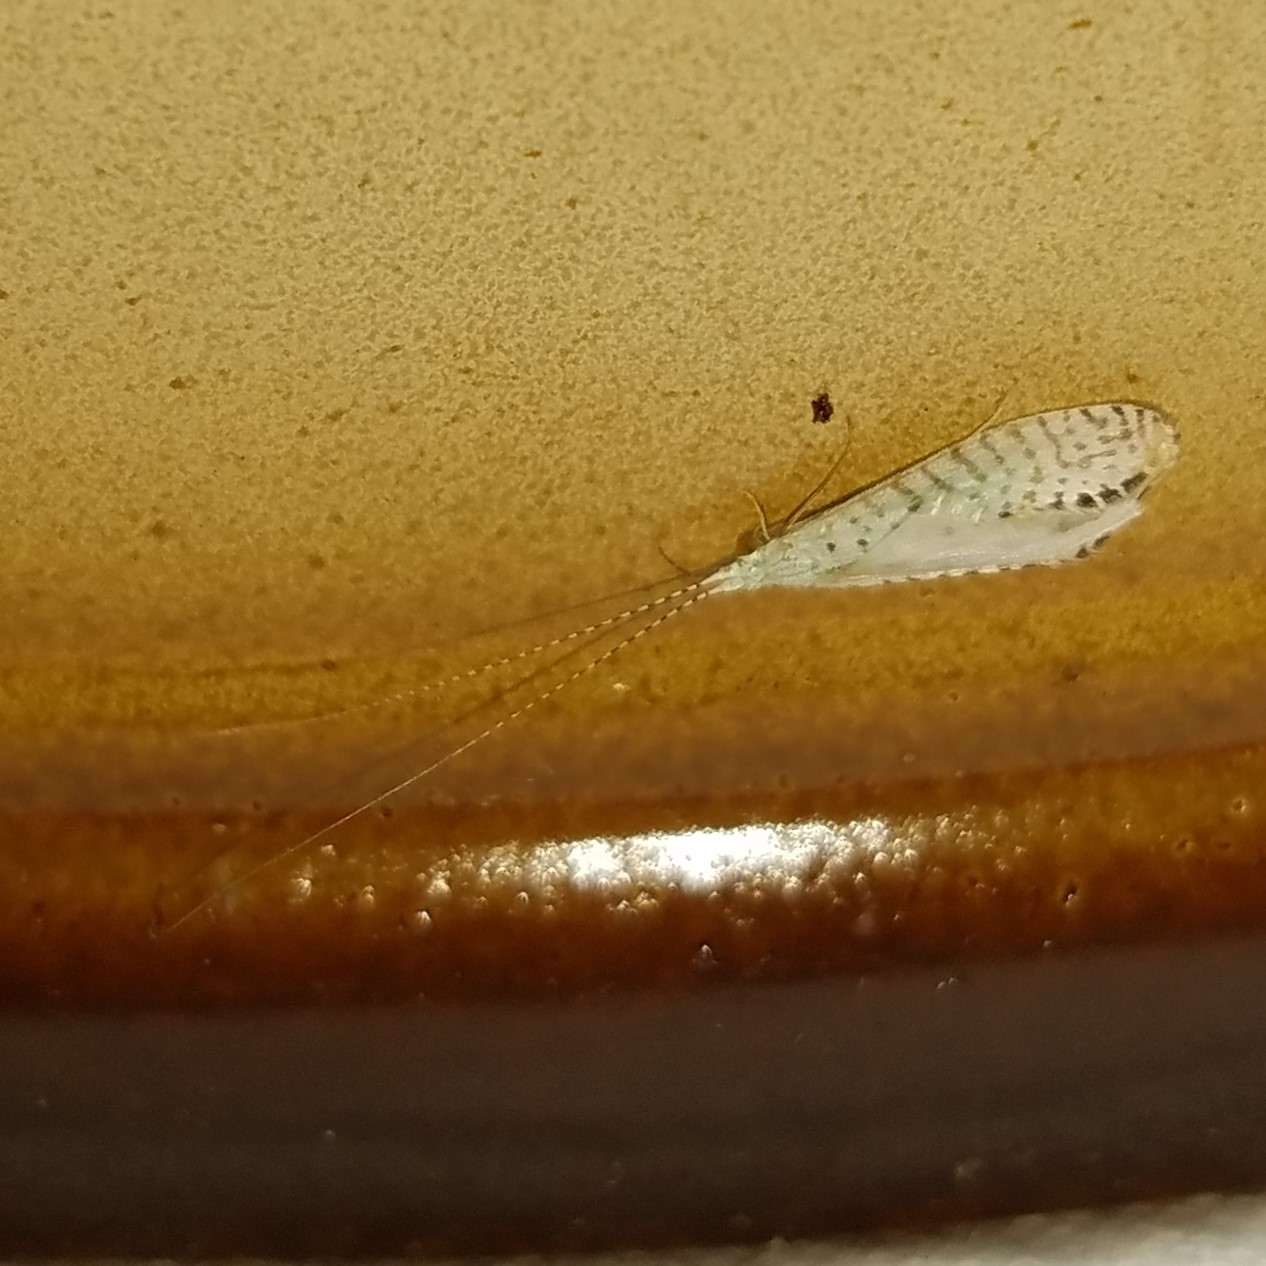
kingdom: Animalia
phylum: Arthropoda
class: Insecta
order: Trichoptera
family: Leptoceridae
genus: Nectopsyche
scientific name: Nectopsyche candida
